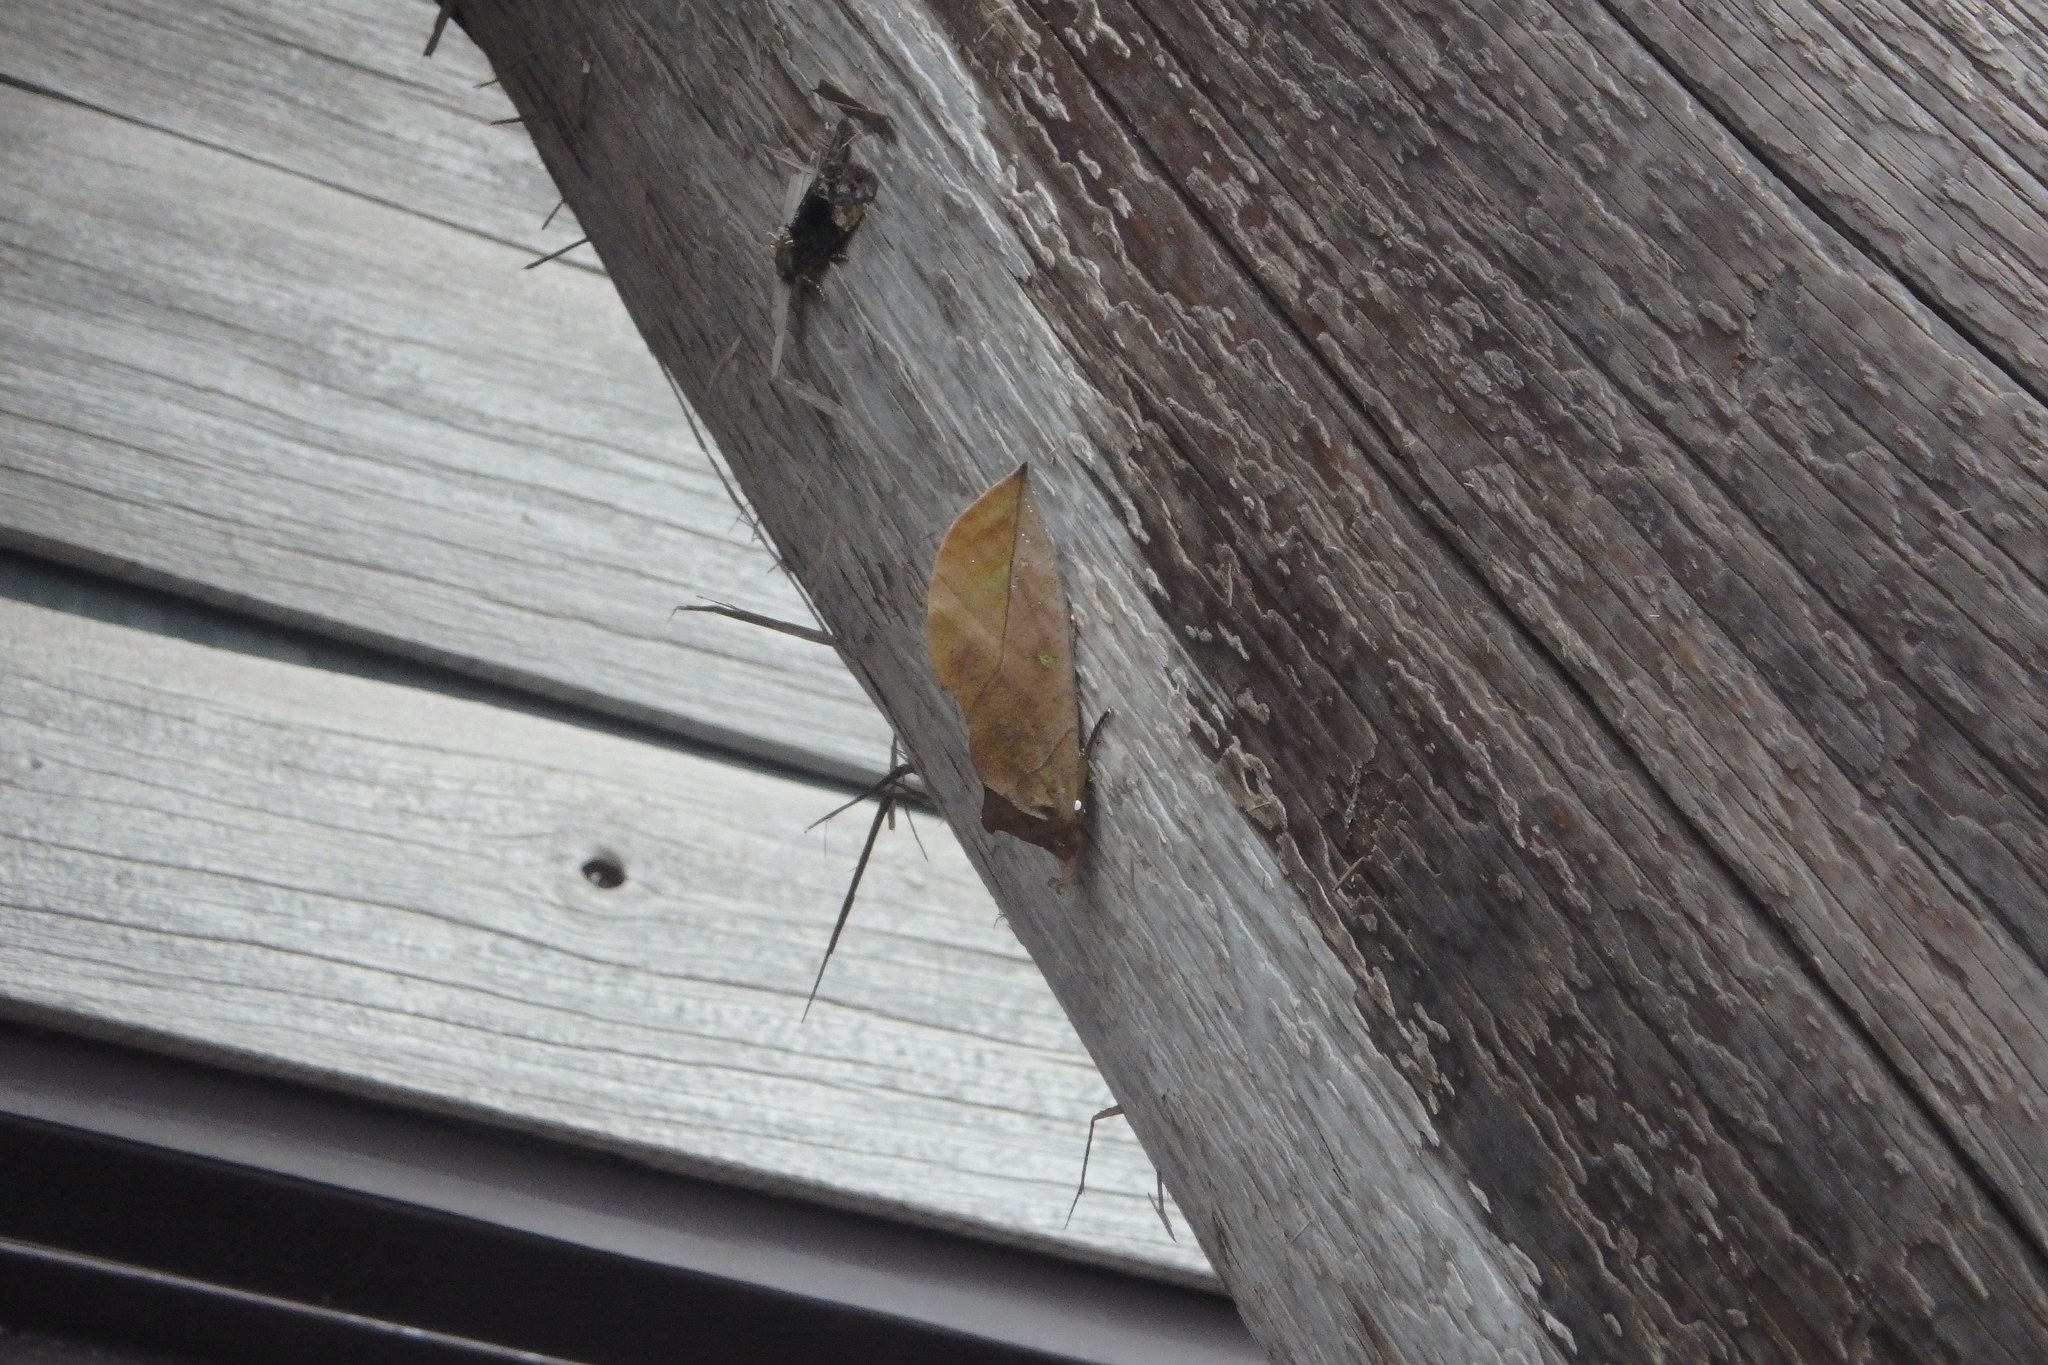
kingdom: Animalia
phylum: Arthropoda
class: Insecta
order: Lepidoptera
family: Erebidae
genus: Eudocima
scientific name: Eudocima tyrannus
